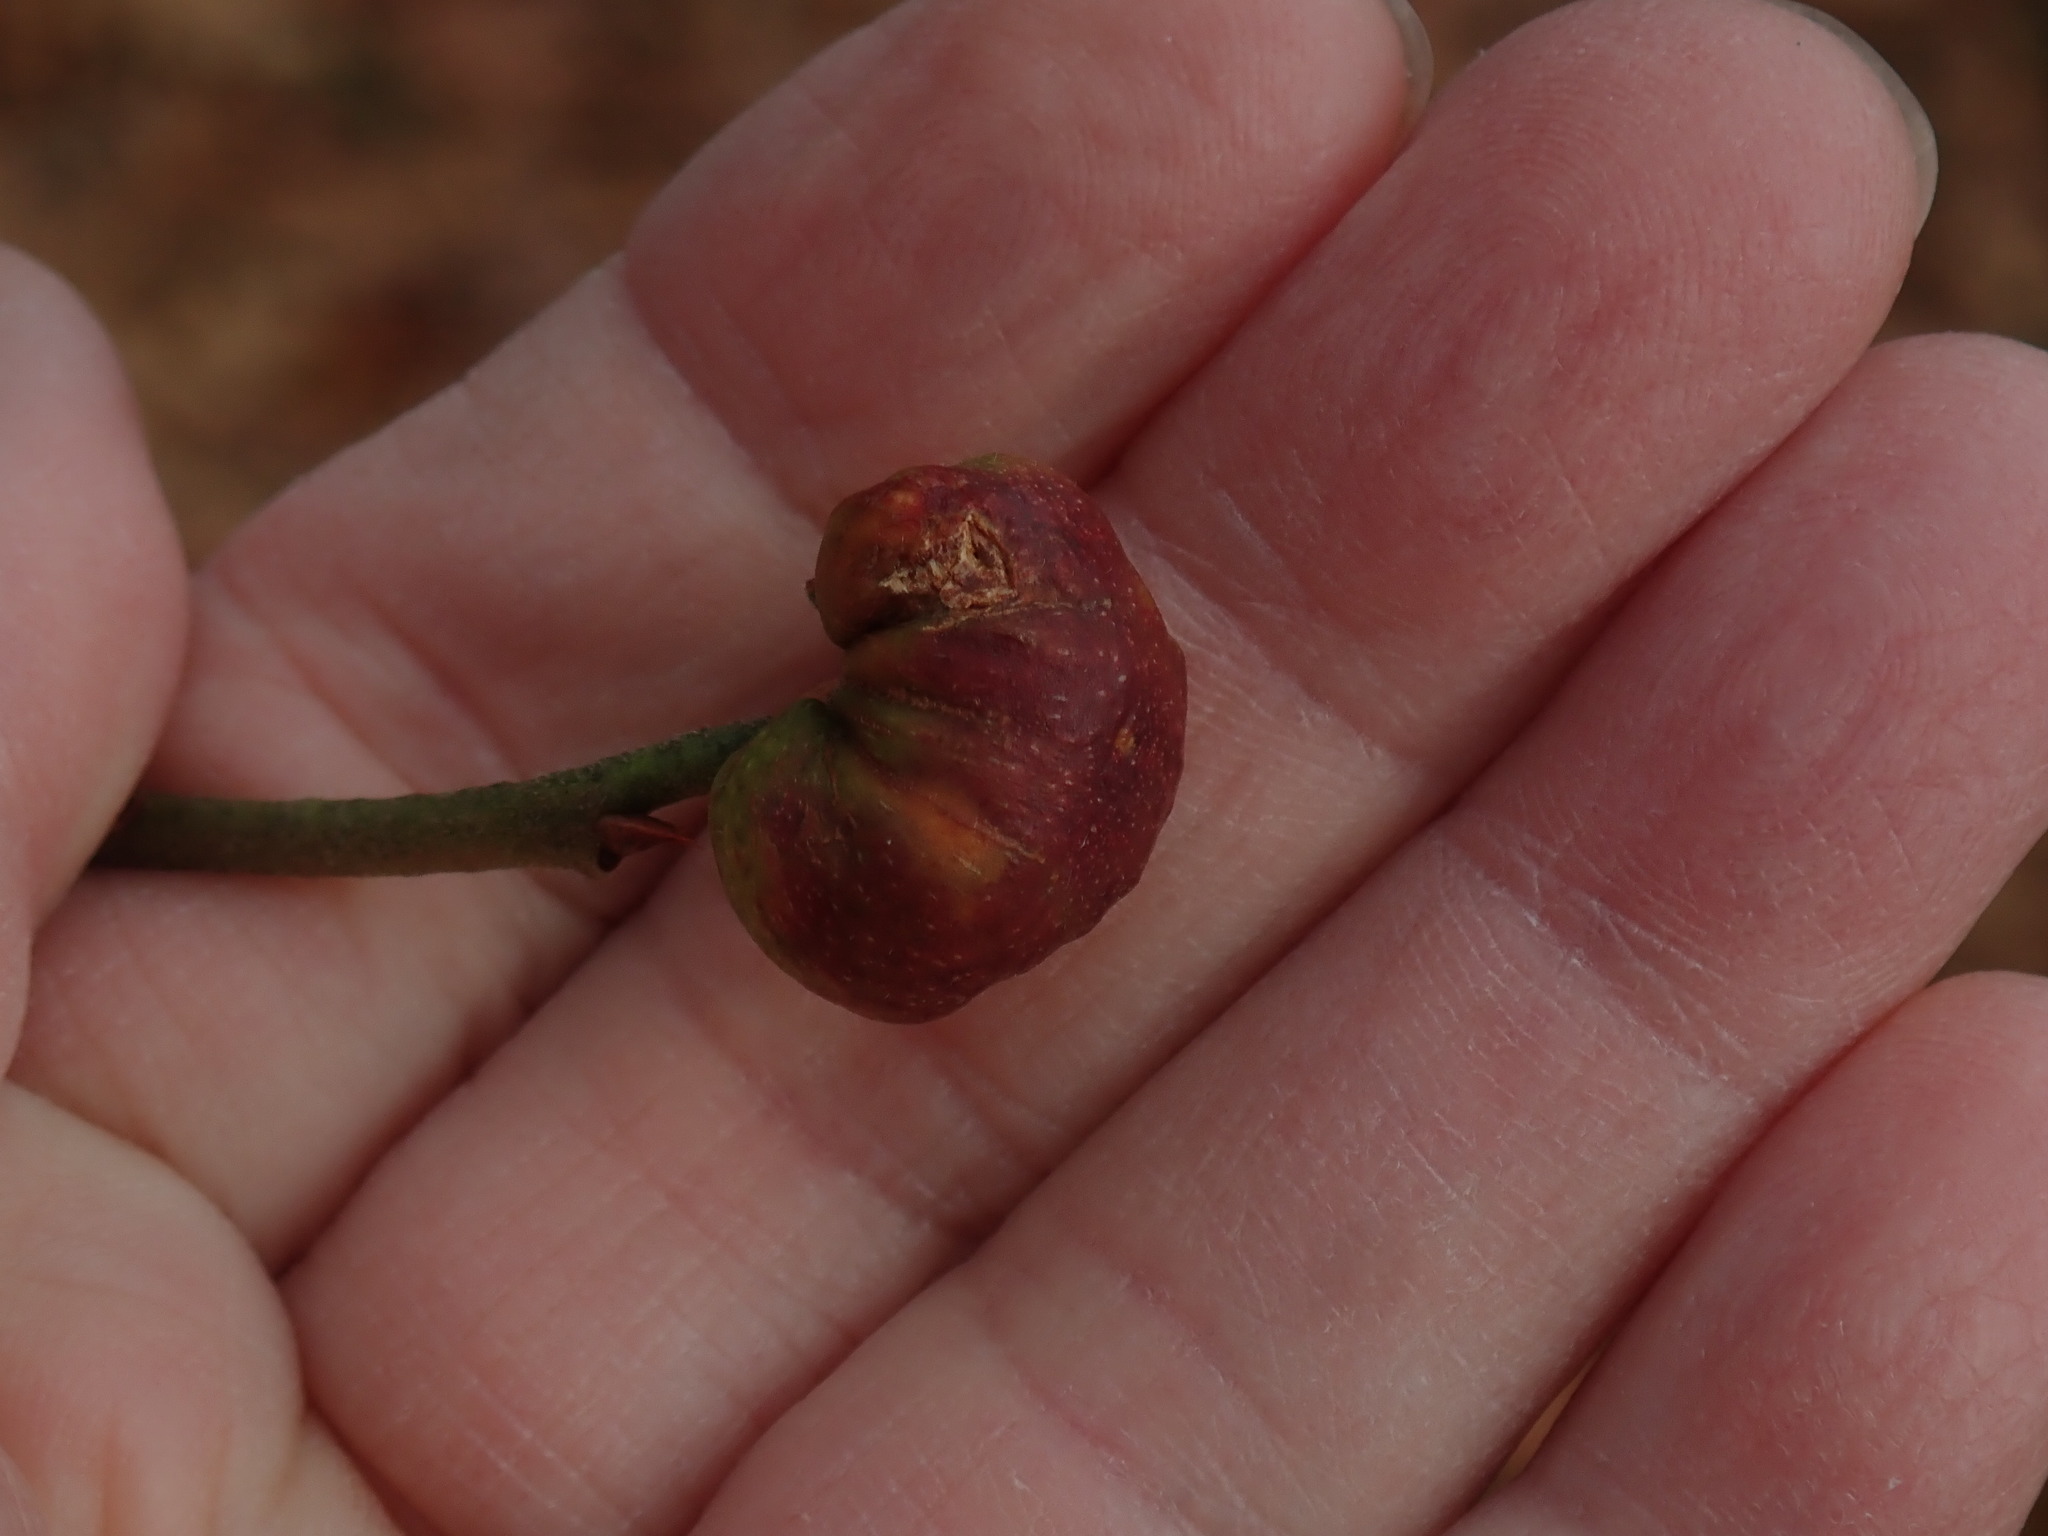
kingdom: Animalia
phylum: Arthropoda
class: Insecta
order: Hymenoptera
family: Pteromalidae
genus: Hemadas
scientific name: Hemadas nubilipennis
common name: Blueberry stem gall wasp
